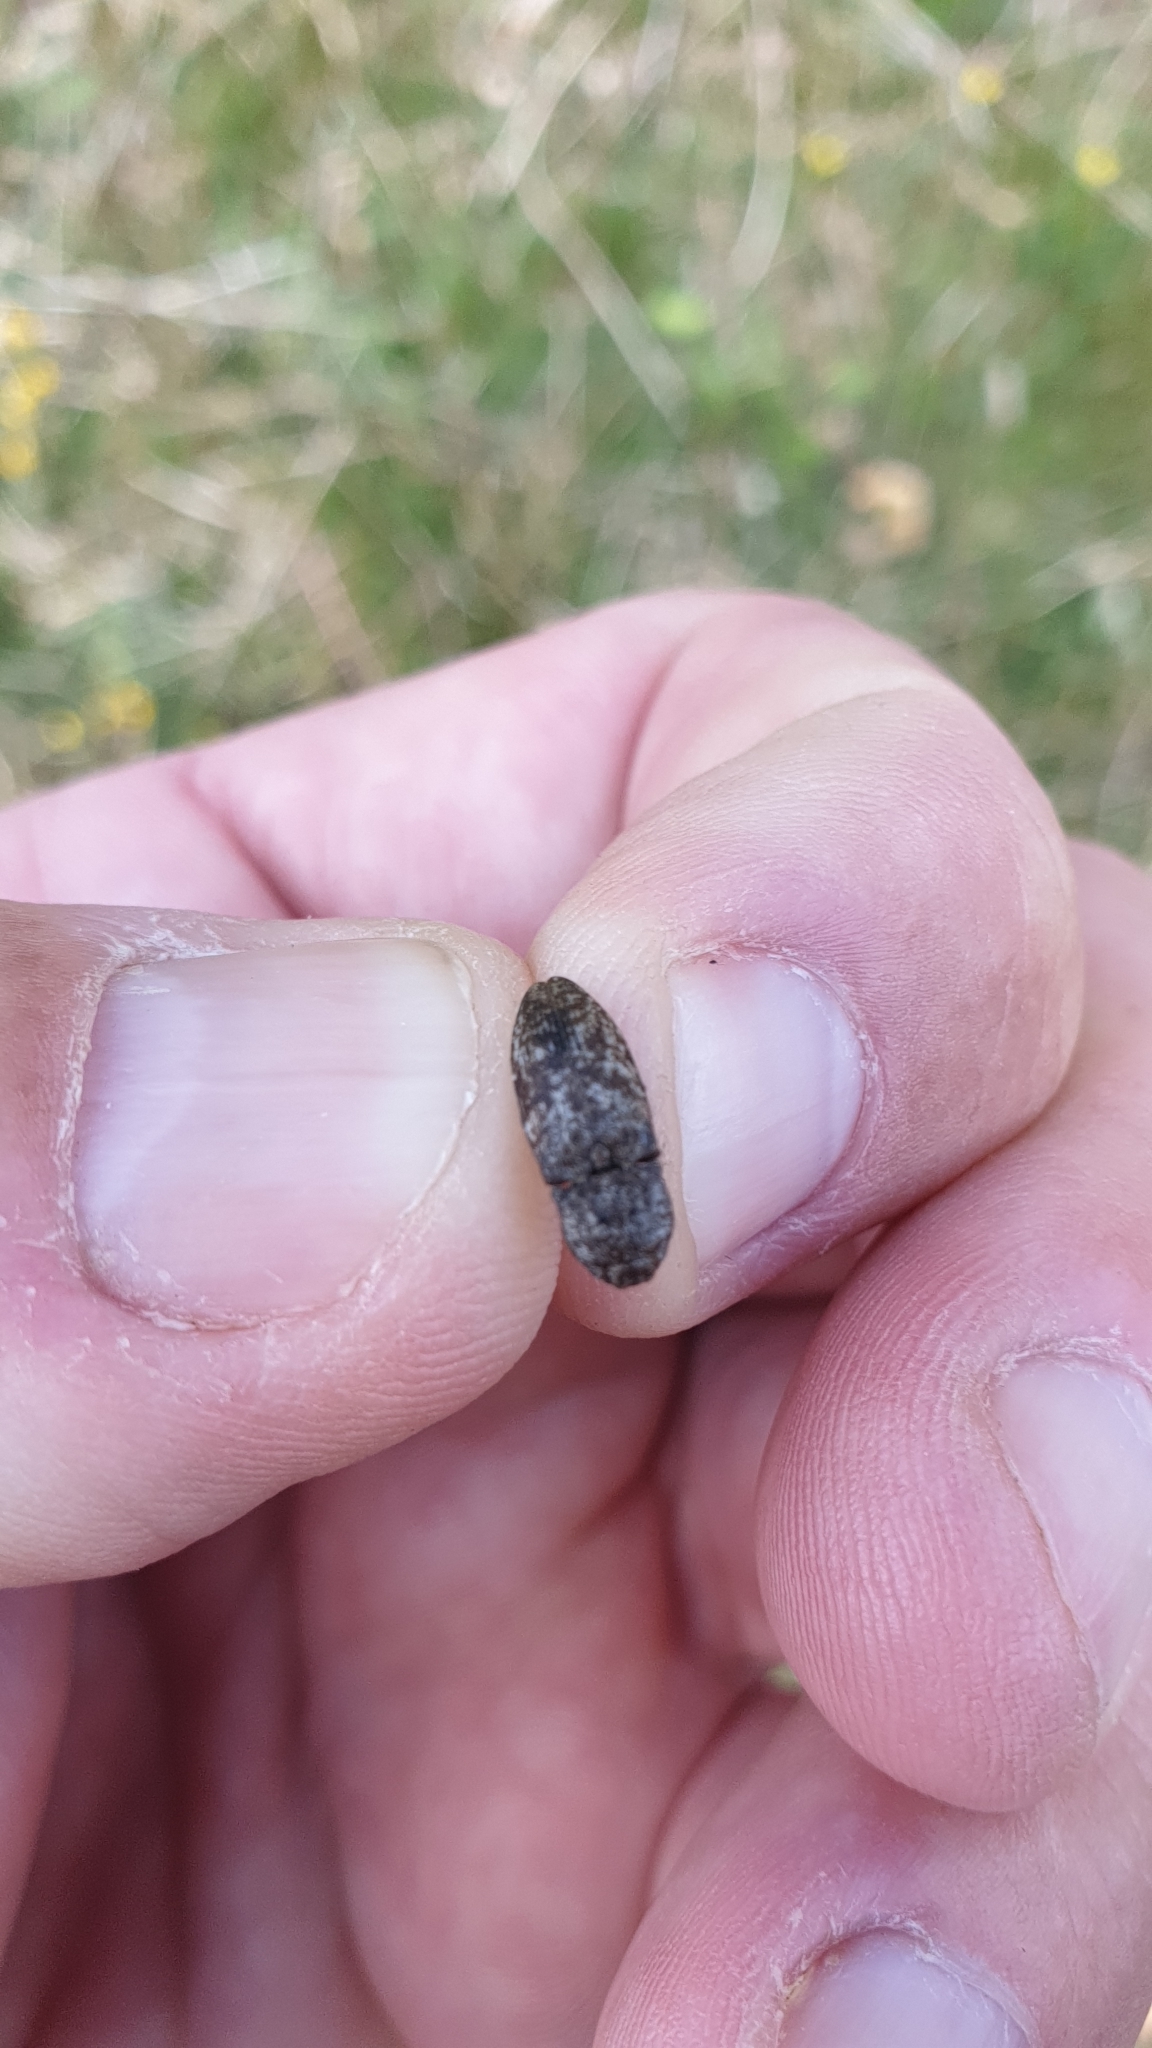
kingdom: Animalia
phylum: Arthropoda
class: Insecta
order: Coleoptera
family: Elateridae
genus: Agrypnus
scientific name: Agrypnus murinus
